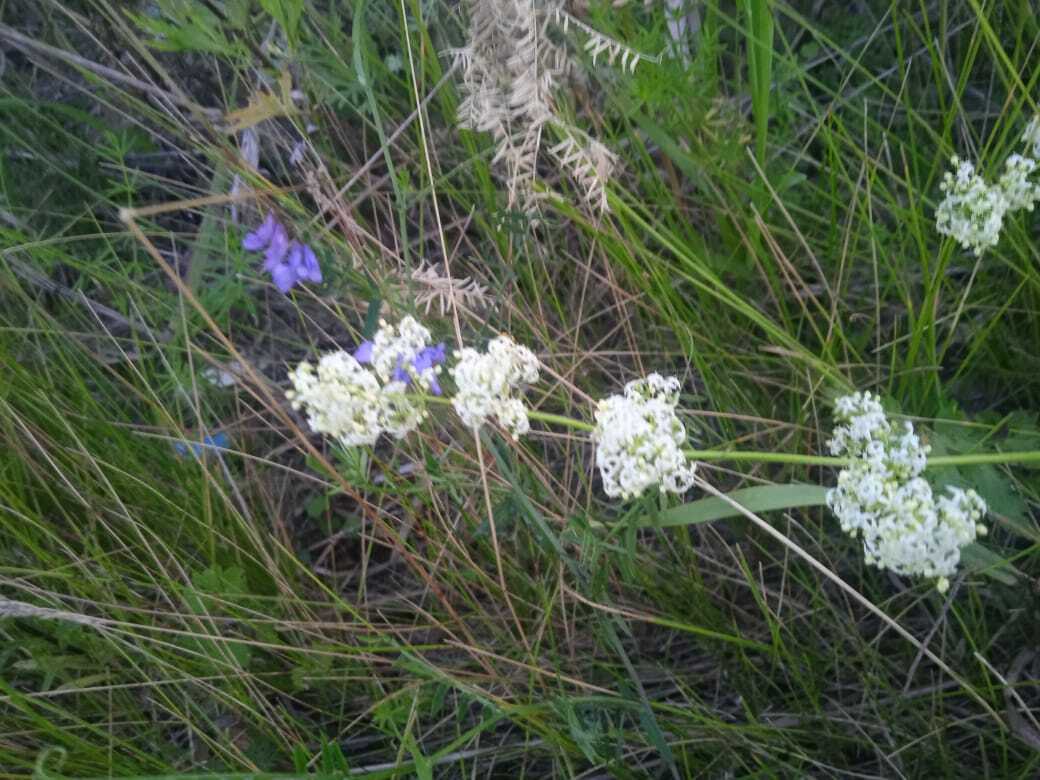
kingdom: Plantae
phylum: Tracheophyta
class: Magnoliopsida
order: Gentianales
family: Rubiaceae
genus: Galium
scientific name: Galium mollugo
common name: Hedge bedstraw
